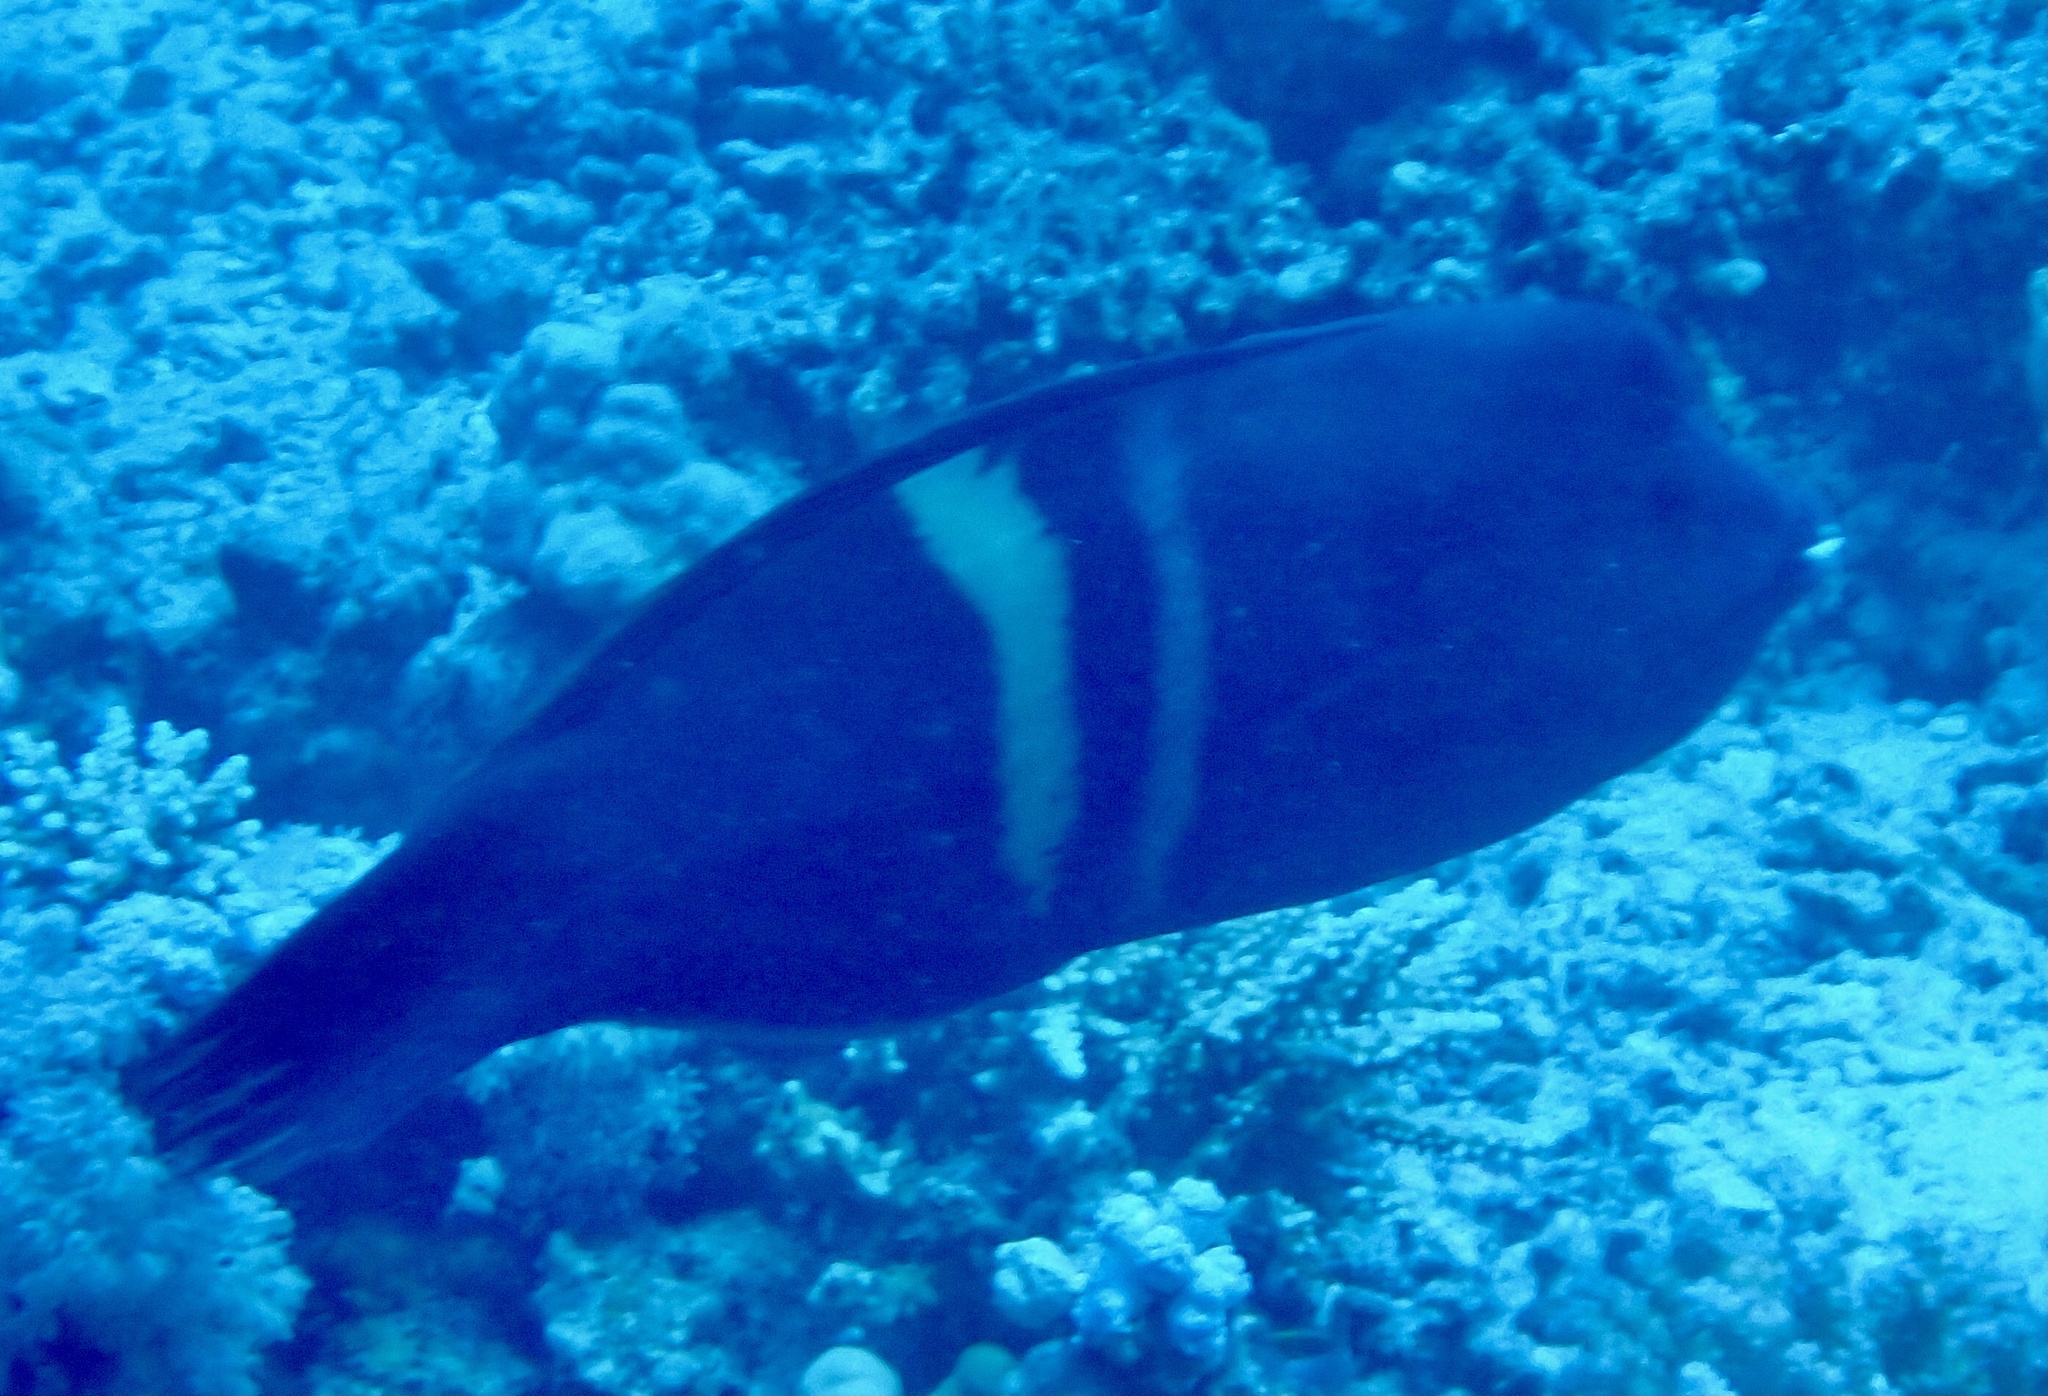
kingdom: Animalia
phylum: Chordata
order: Perciformes
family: Labridae
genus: Coris
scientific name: Coris aygula
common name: Clown coris
